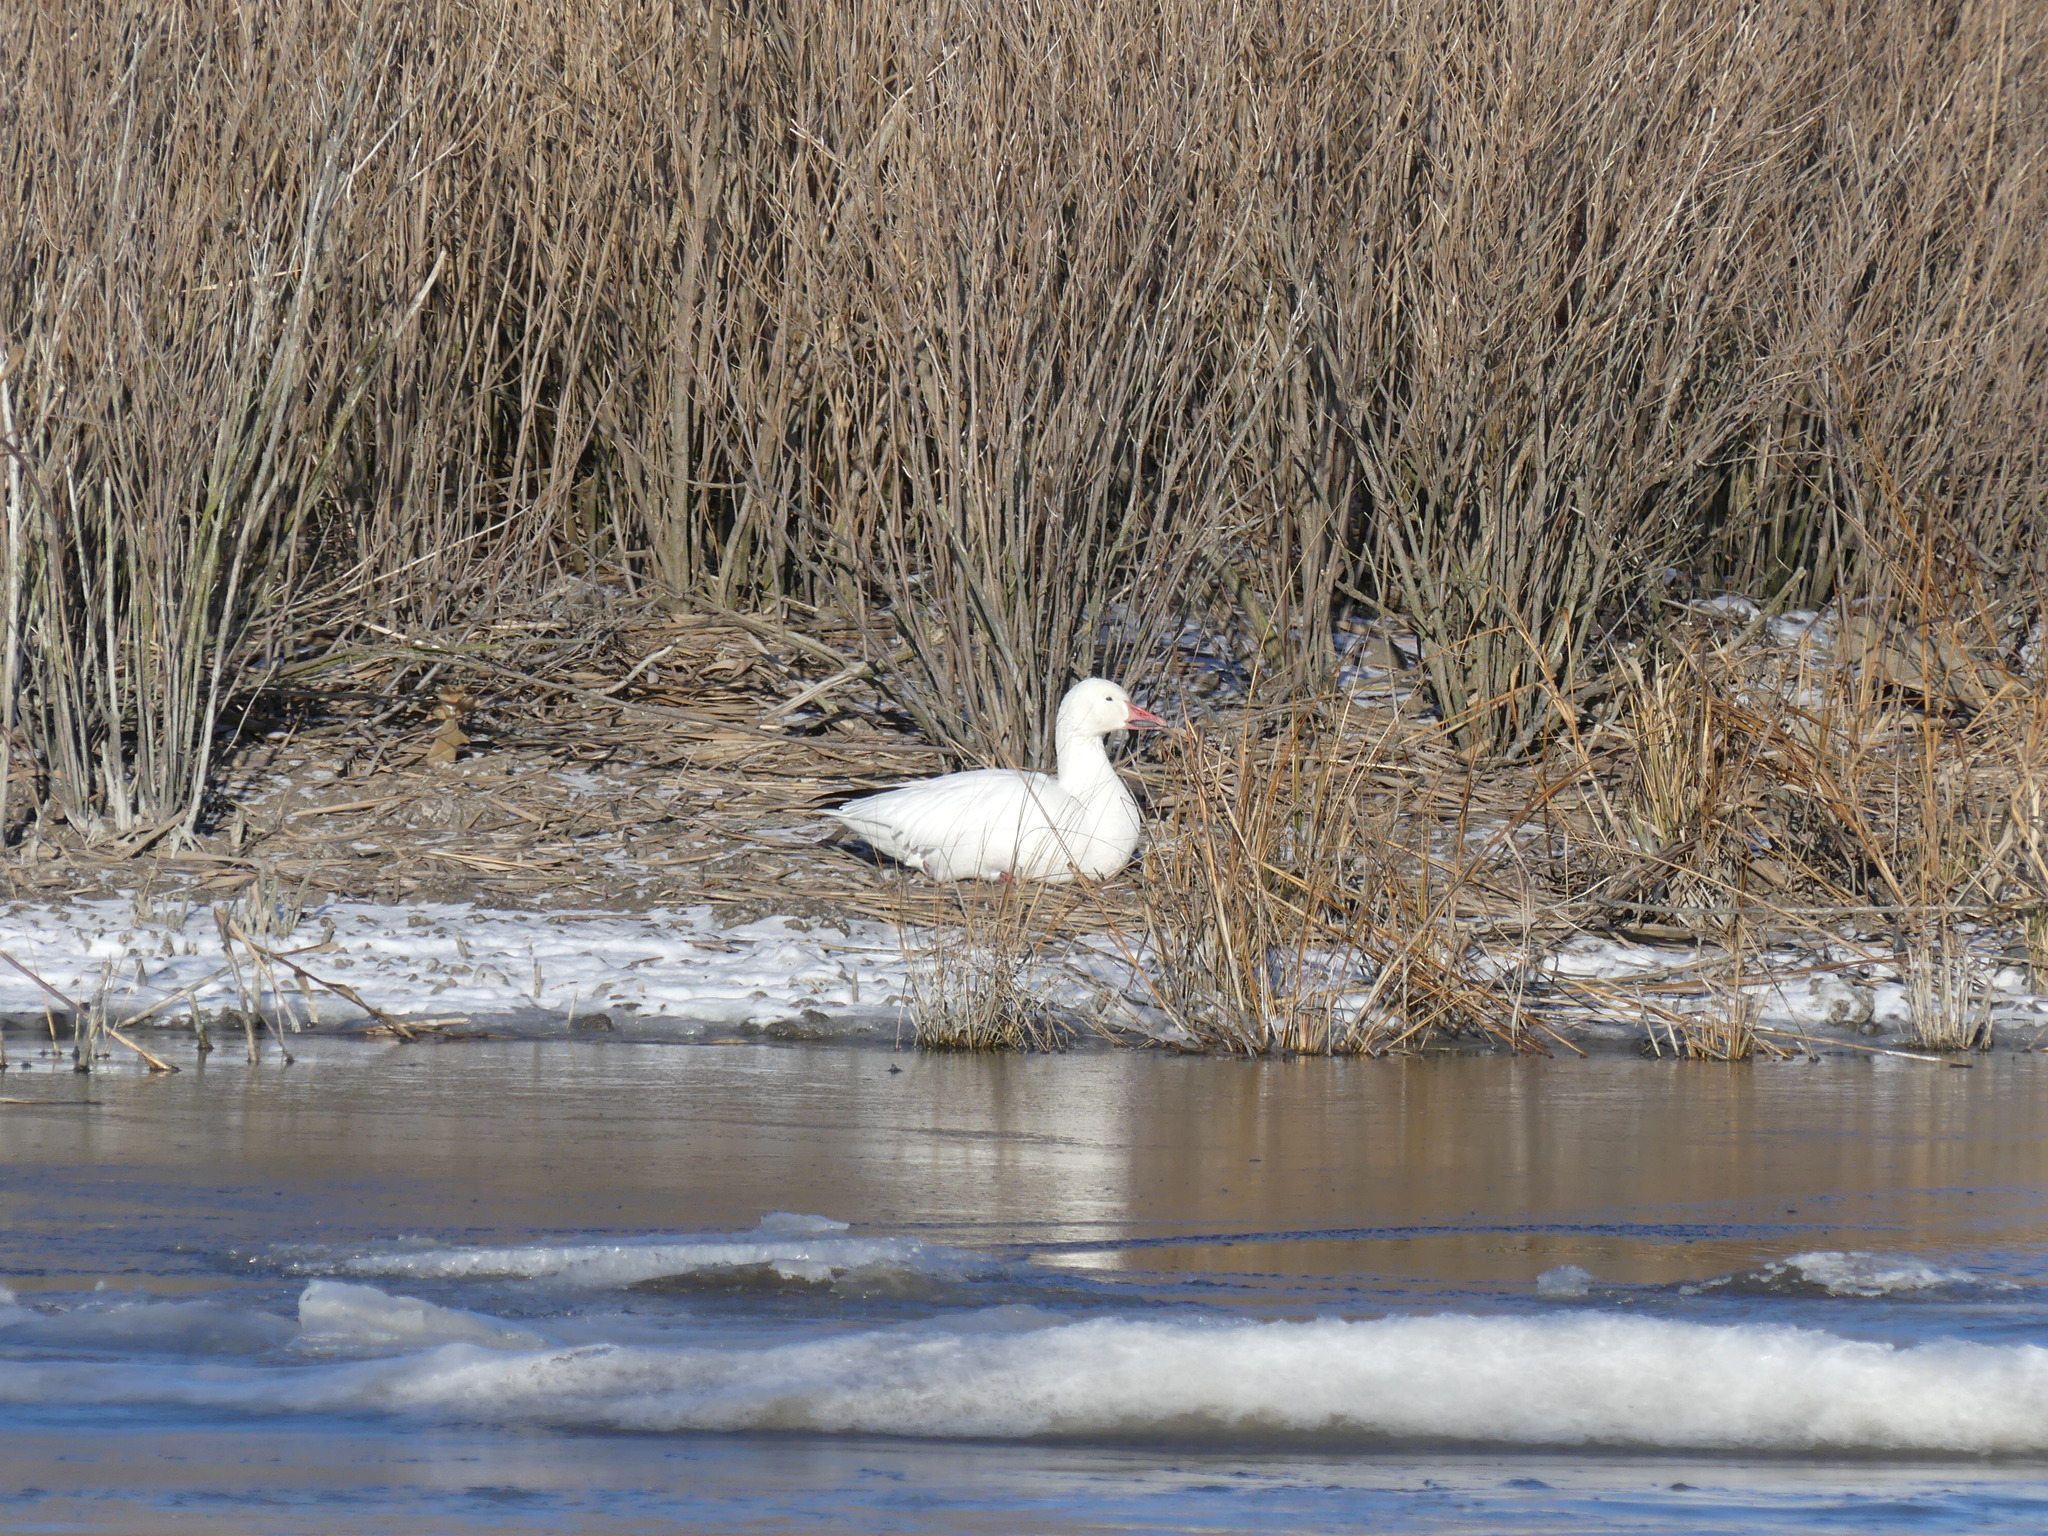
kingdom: Animalia
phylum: Chordata
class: Aves
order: Anseriformes
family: Anatidae
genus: Anser
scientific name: Anser caerulescens
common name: Snow goose
